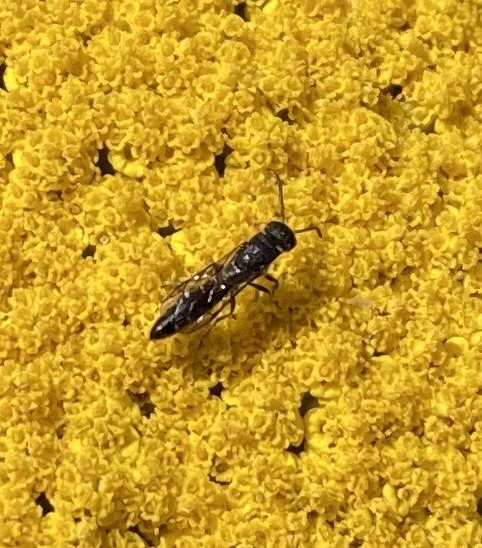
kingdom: Animalia
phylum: Arthropoda
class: Insecta
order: Hymenoptera
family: Sapygidae
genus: Sapygina
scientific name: Sapygina decemguttata
